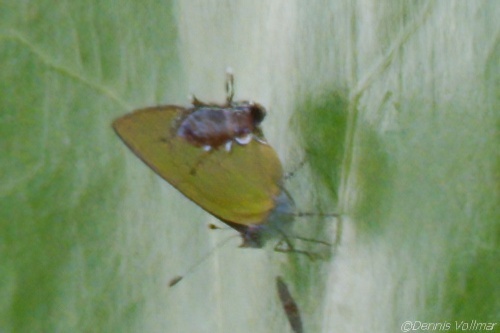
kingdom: Animalia
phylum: Arthropoda
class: Insecta
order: Lepidoptera
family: Lycaenidae
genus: Thecla
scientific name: Thecla maesites
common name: Verde azul hairstreak
